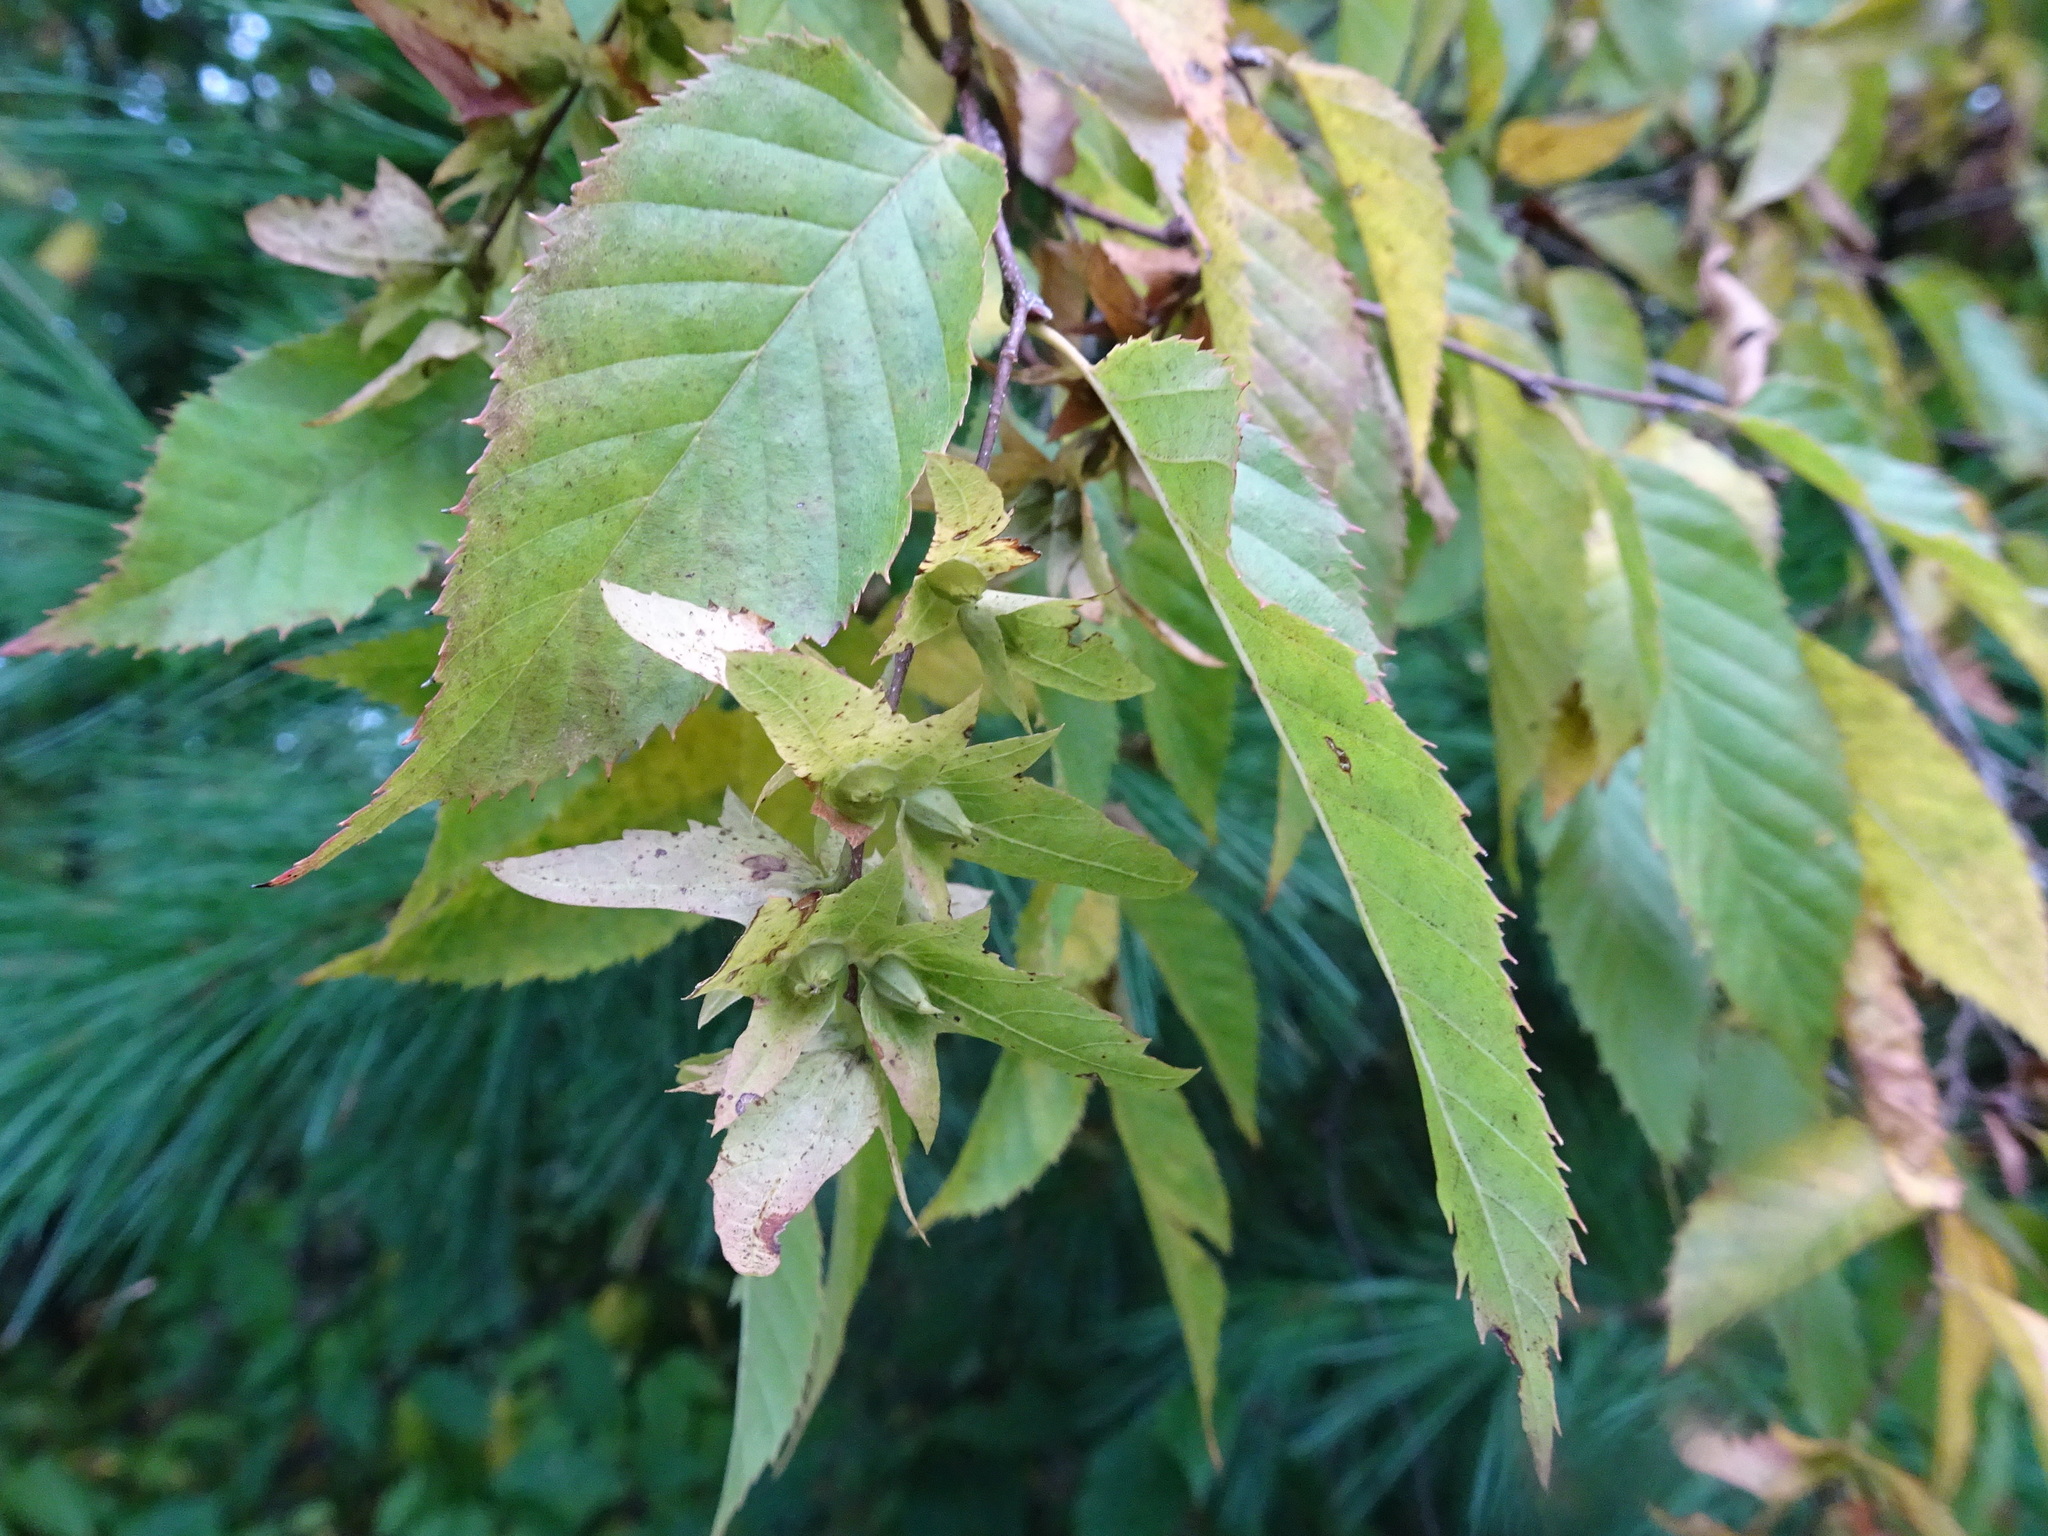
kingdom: Plantae
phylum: Tracheophyta
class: Magnoliopsida
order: Fagales
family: Betulaceae
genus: Carpinus
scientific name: Carpinus caroliniana
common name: American hornbeam
